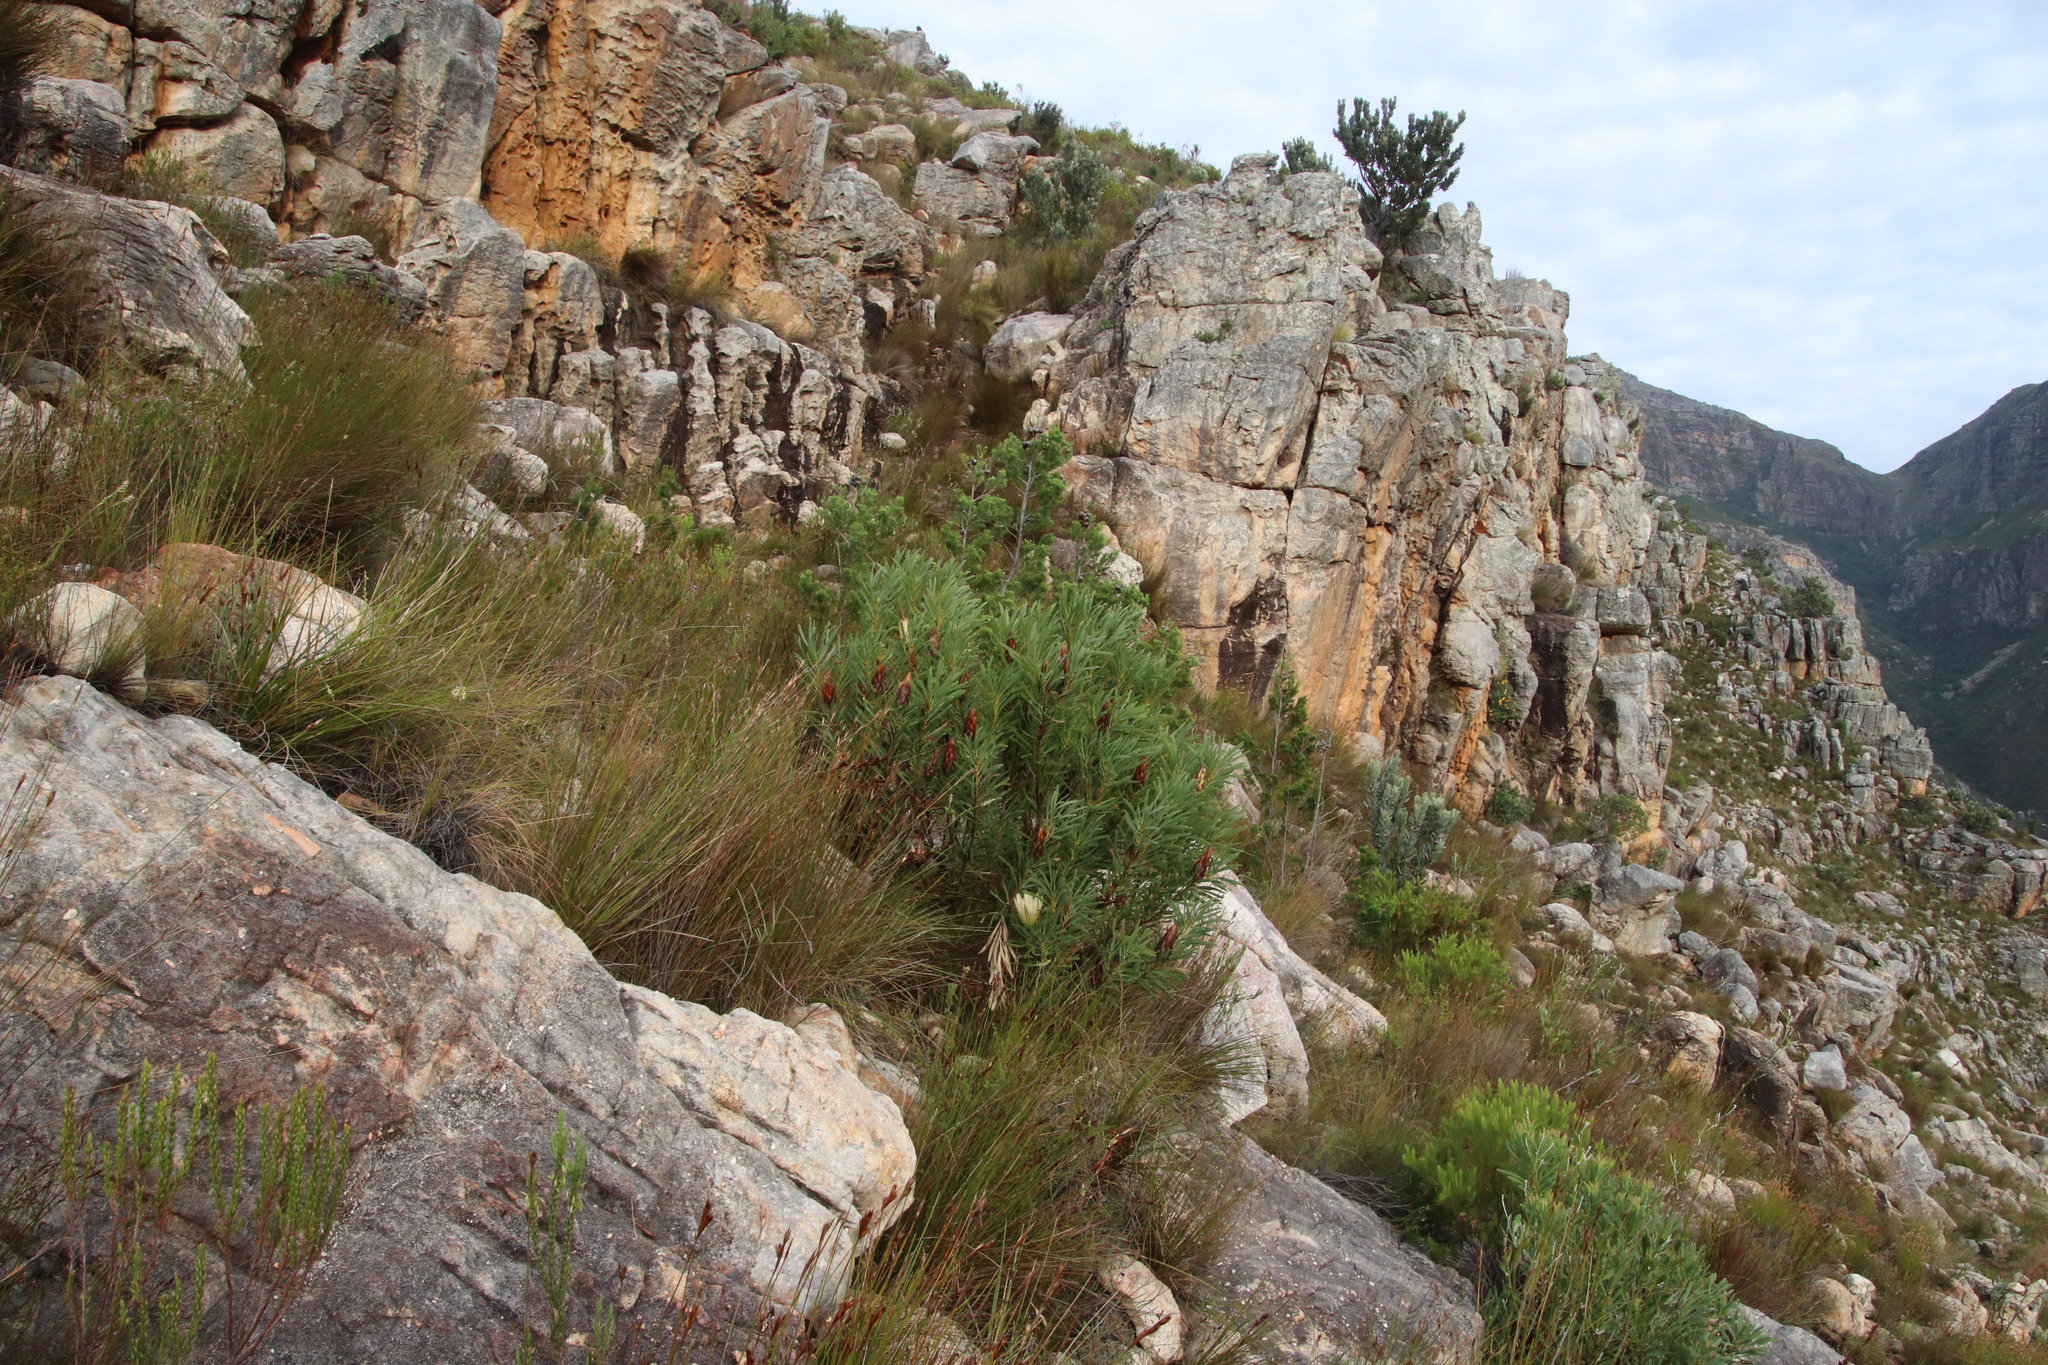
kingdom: Plantae
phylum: Tracheophyta
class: Magnoliopsida
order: Proteales
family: Proteaceae
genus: Protea
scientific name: Protea repens
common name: Sugarbush
